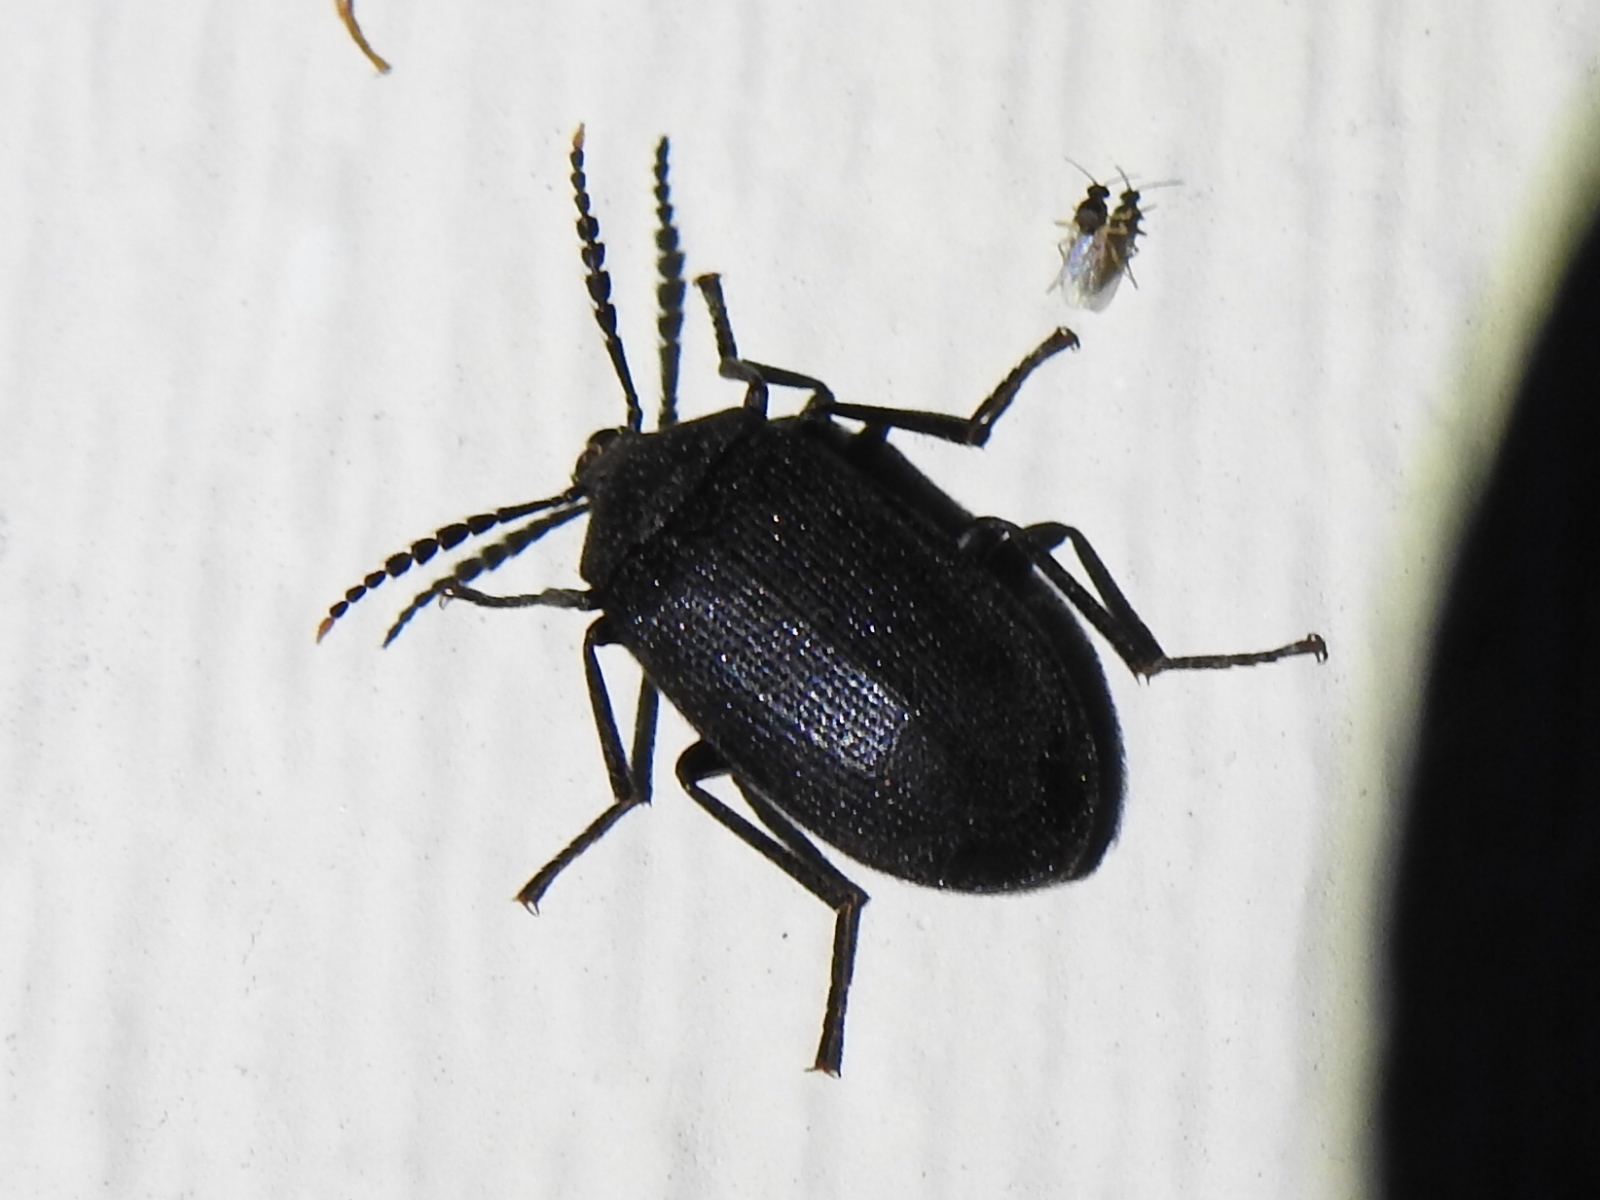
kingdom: Animalia
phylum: Arthropoda
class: Insecta
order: Coleoptera
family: Tetratomidae
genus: Penthe
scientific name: Penthe pimelia
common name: Velvety bark beetle
